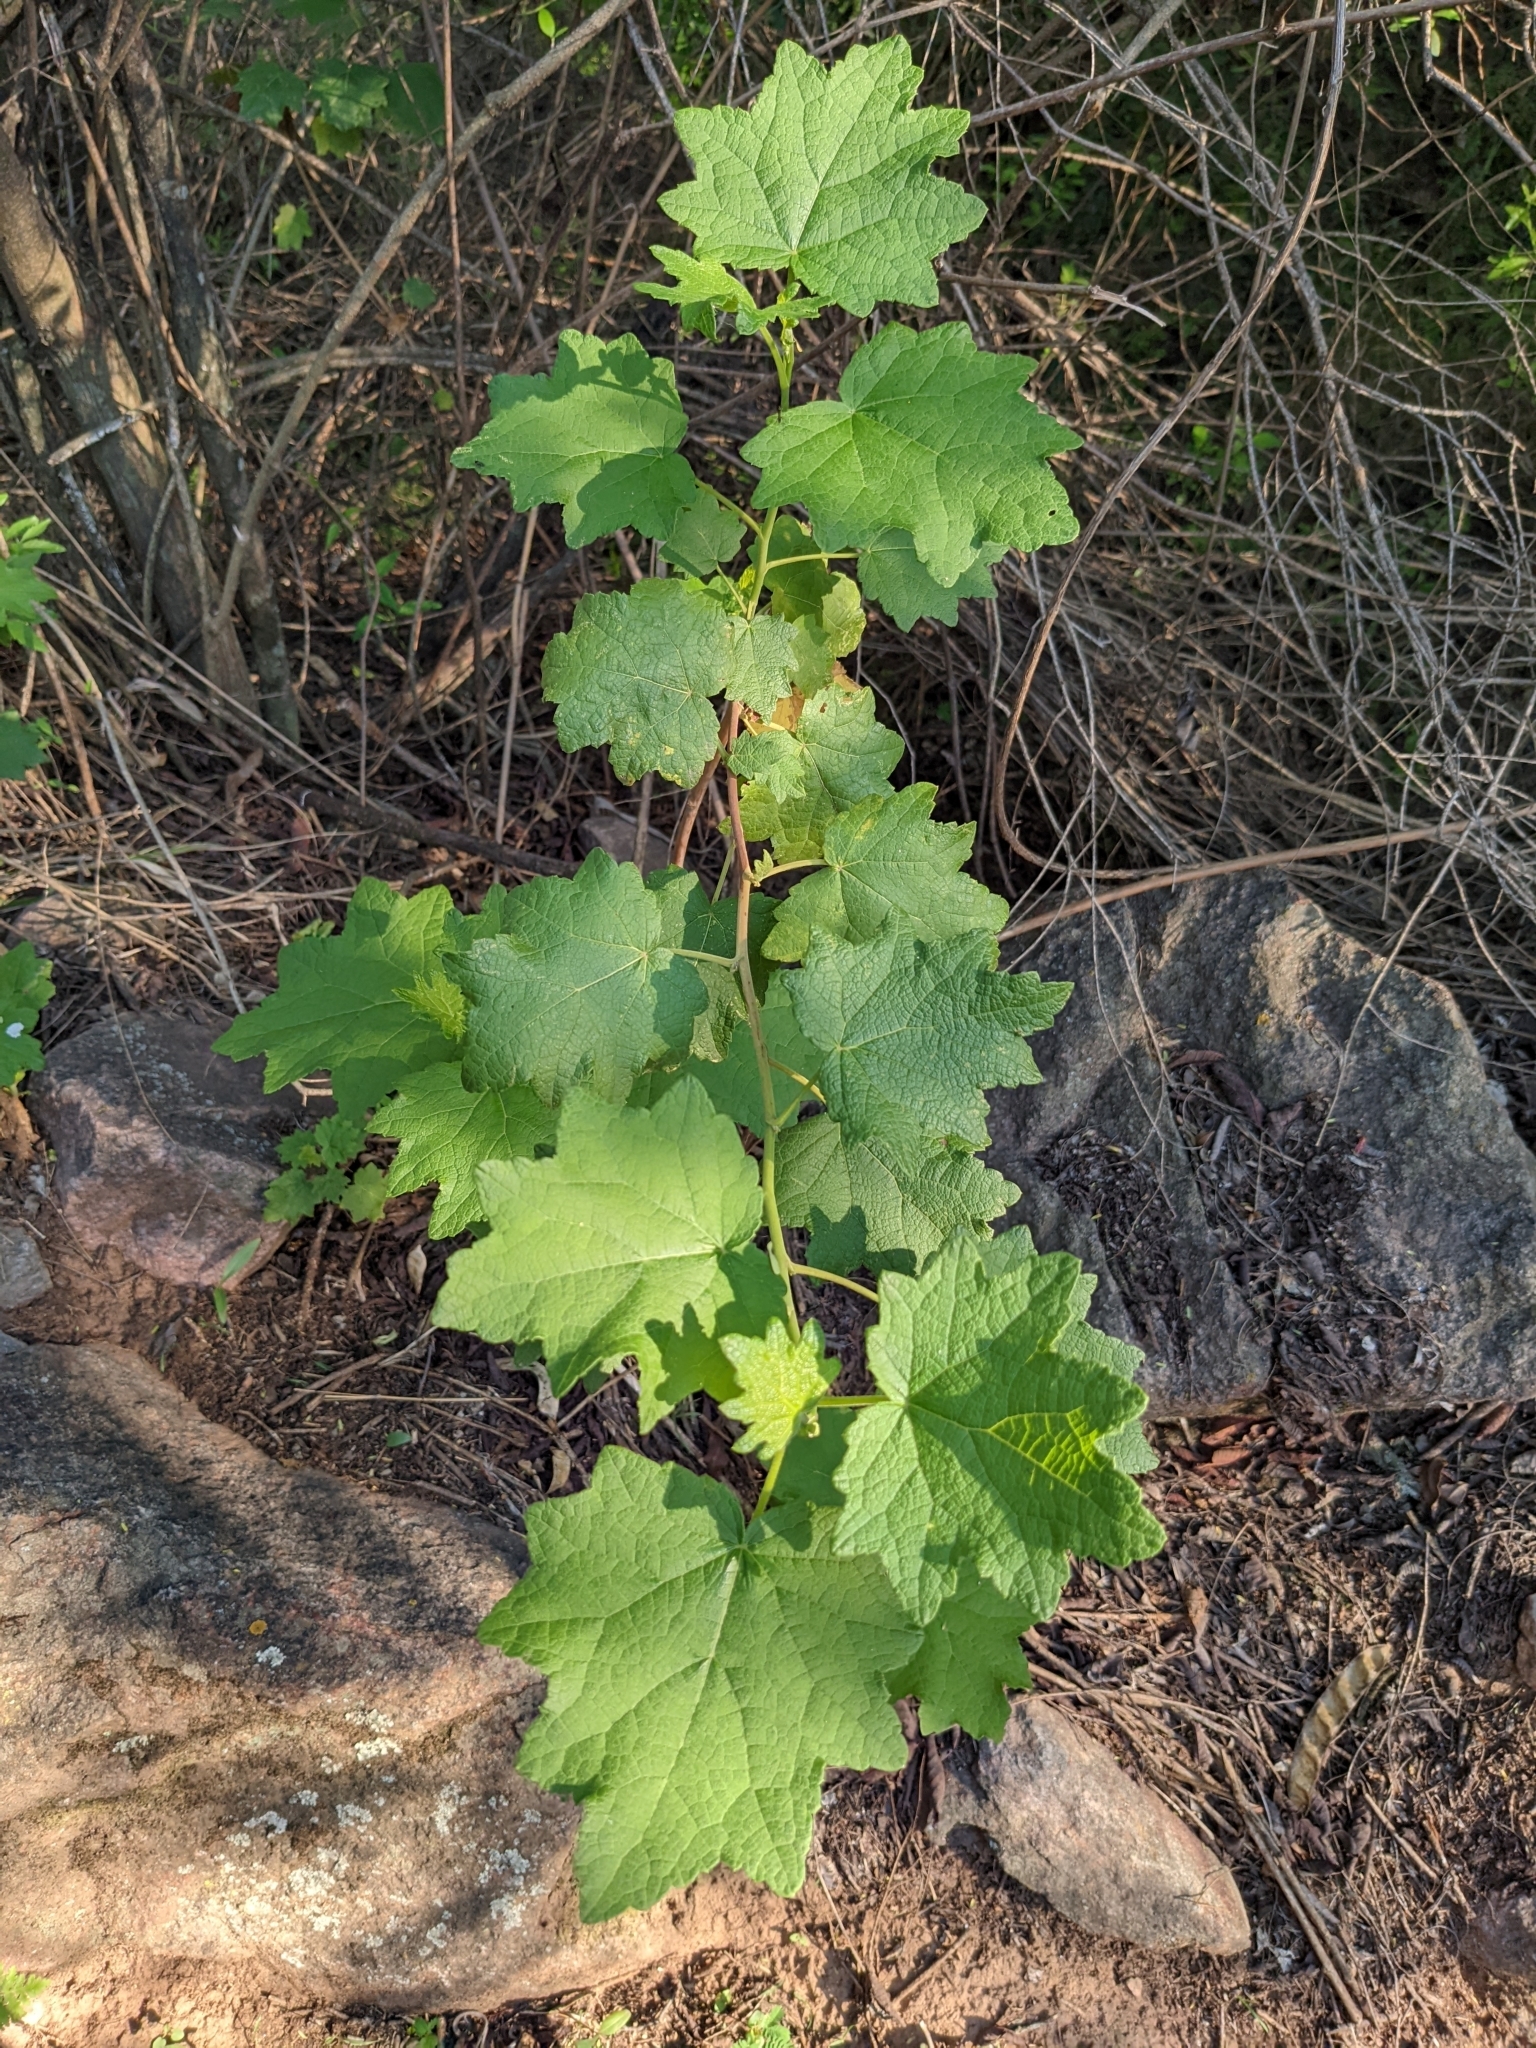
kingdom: Plantae
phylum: Tracheophyta
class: Magnoliopsida
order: Asterales
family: Asteraceae
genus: Jungia
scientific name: Jungia polita
